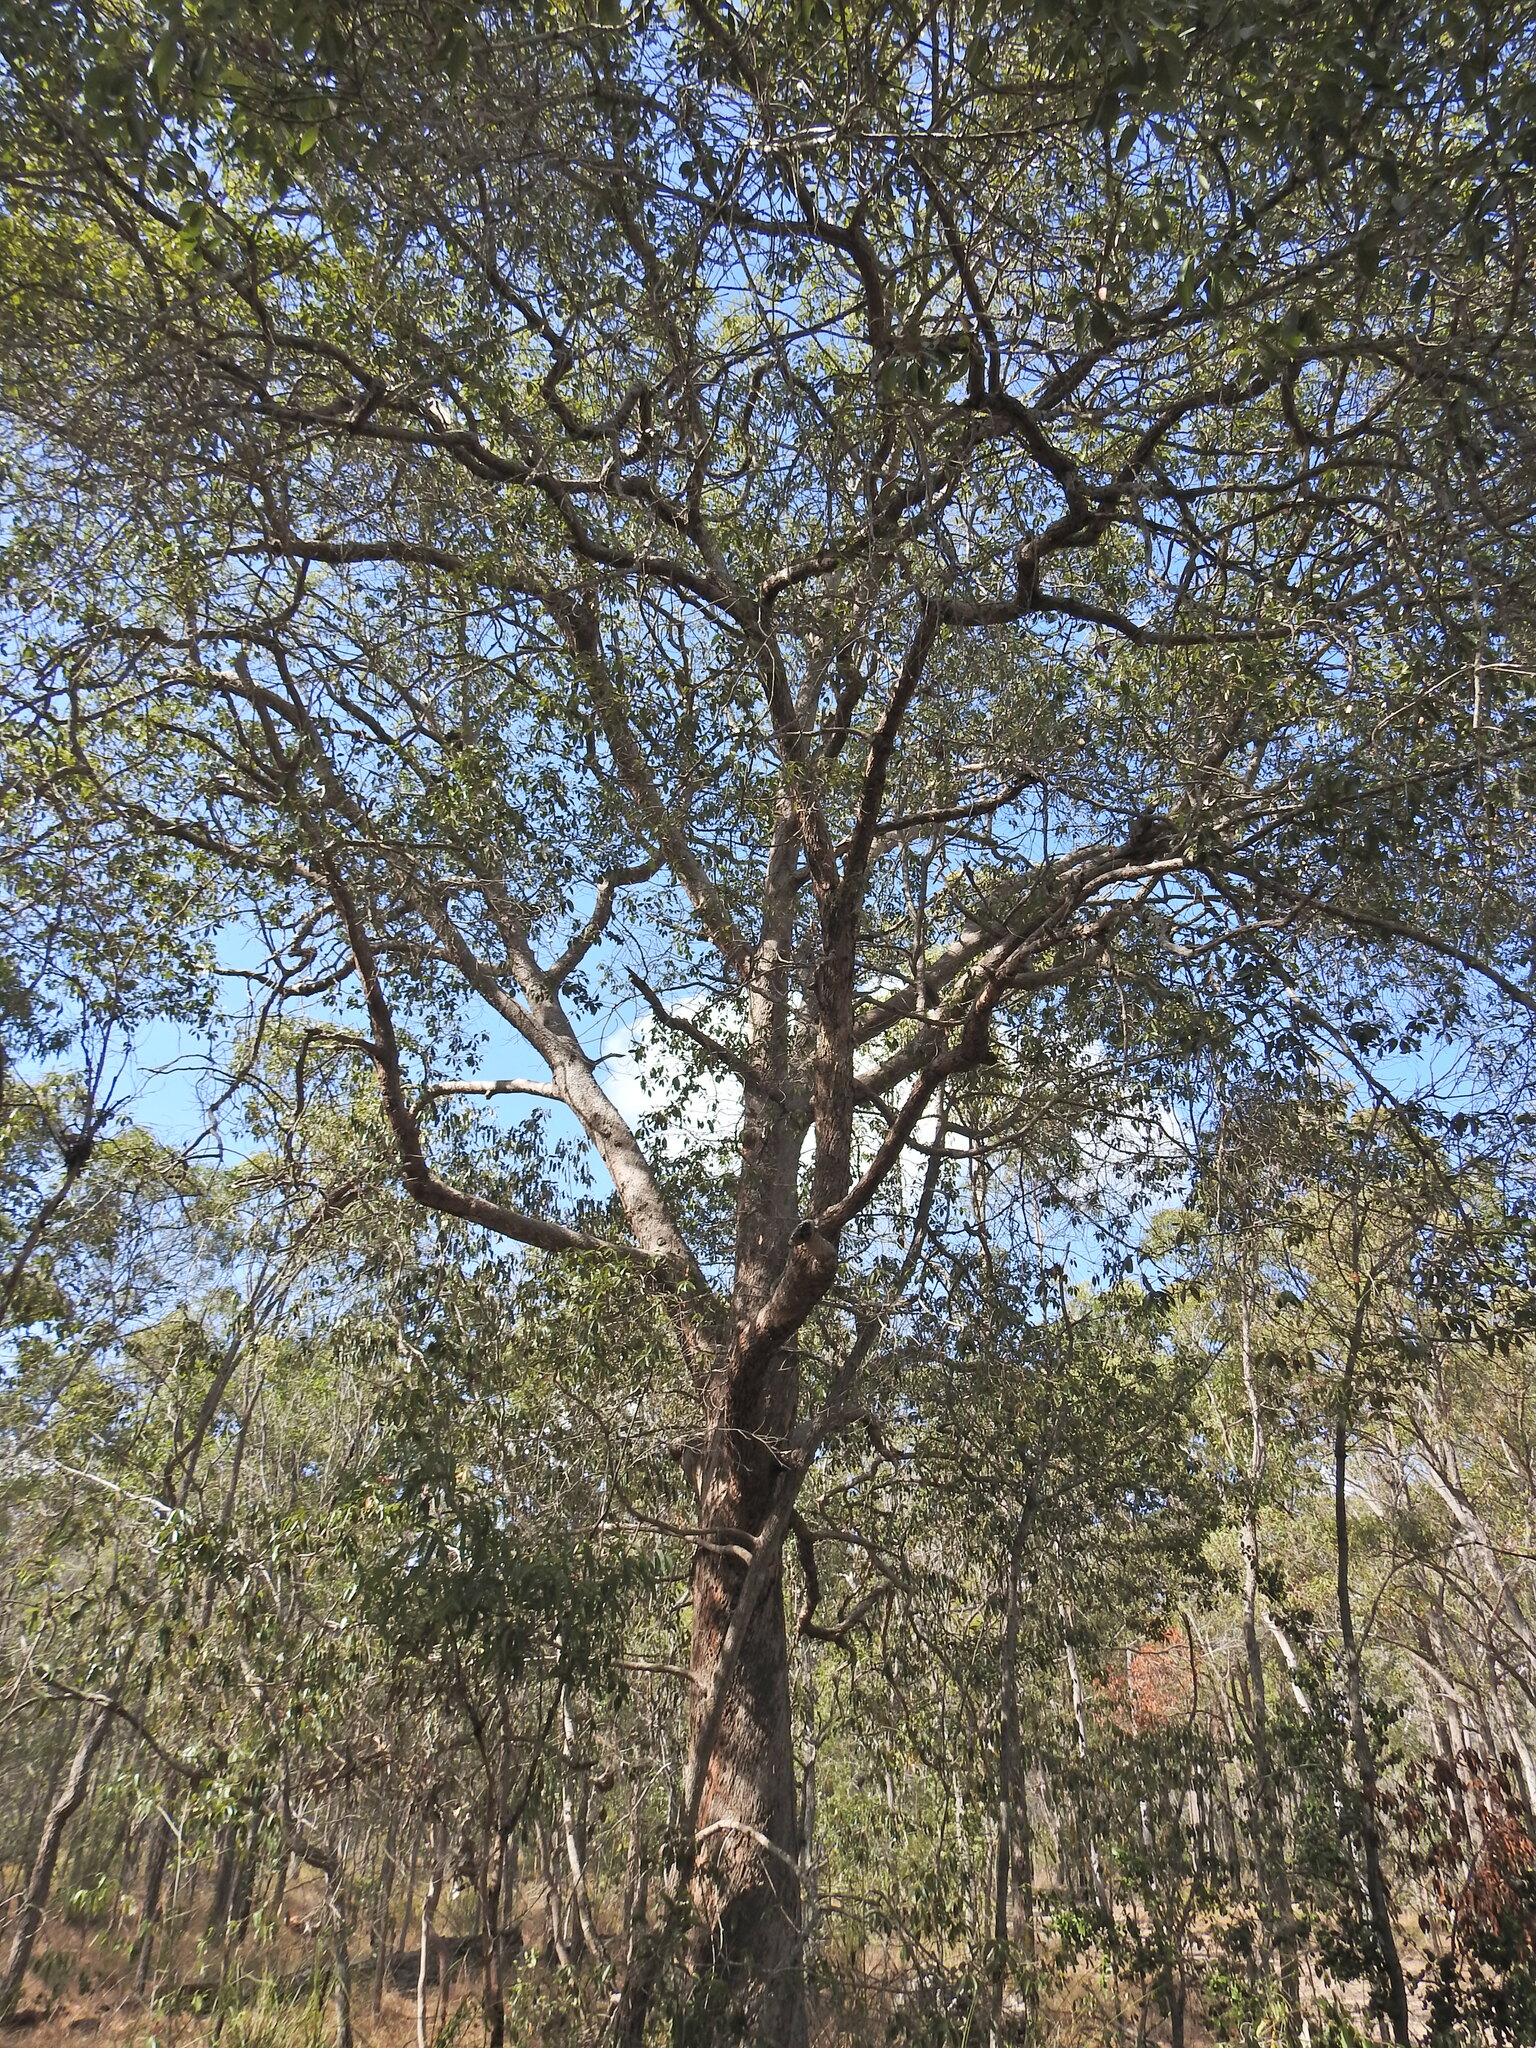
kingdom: Plantae
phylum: Tracheophyta
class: Magnoliopsida
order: Myrtales
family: Myrtaceae
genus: Lophostemon
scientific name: Lophostemon confertus
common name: Brisbane box
